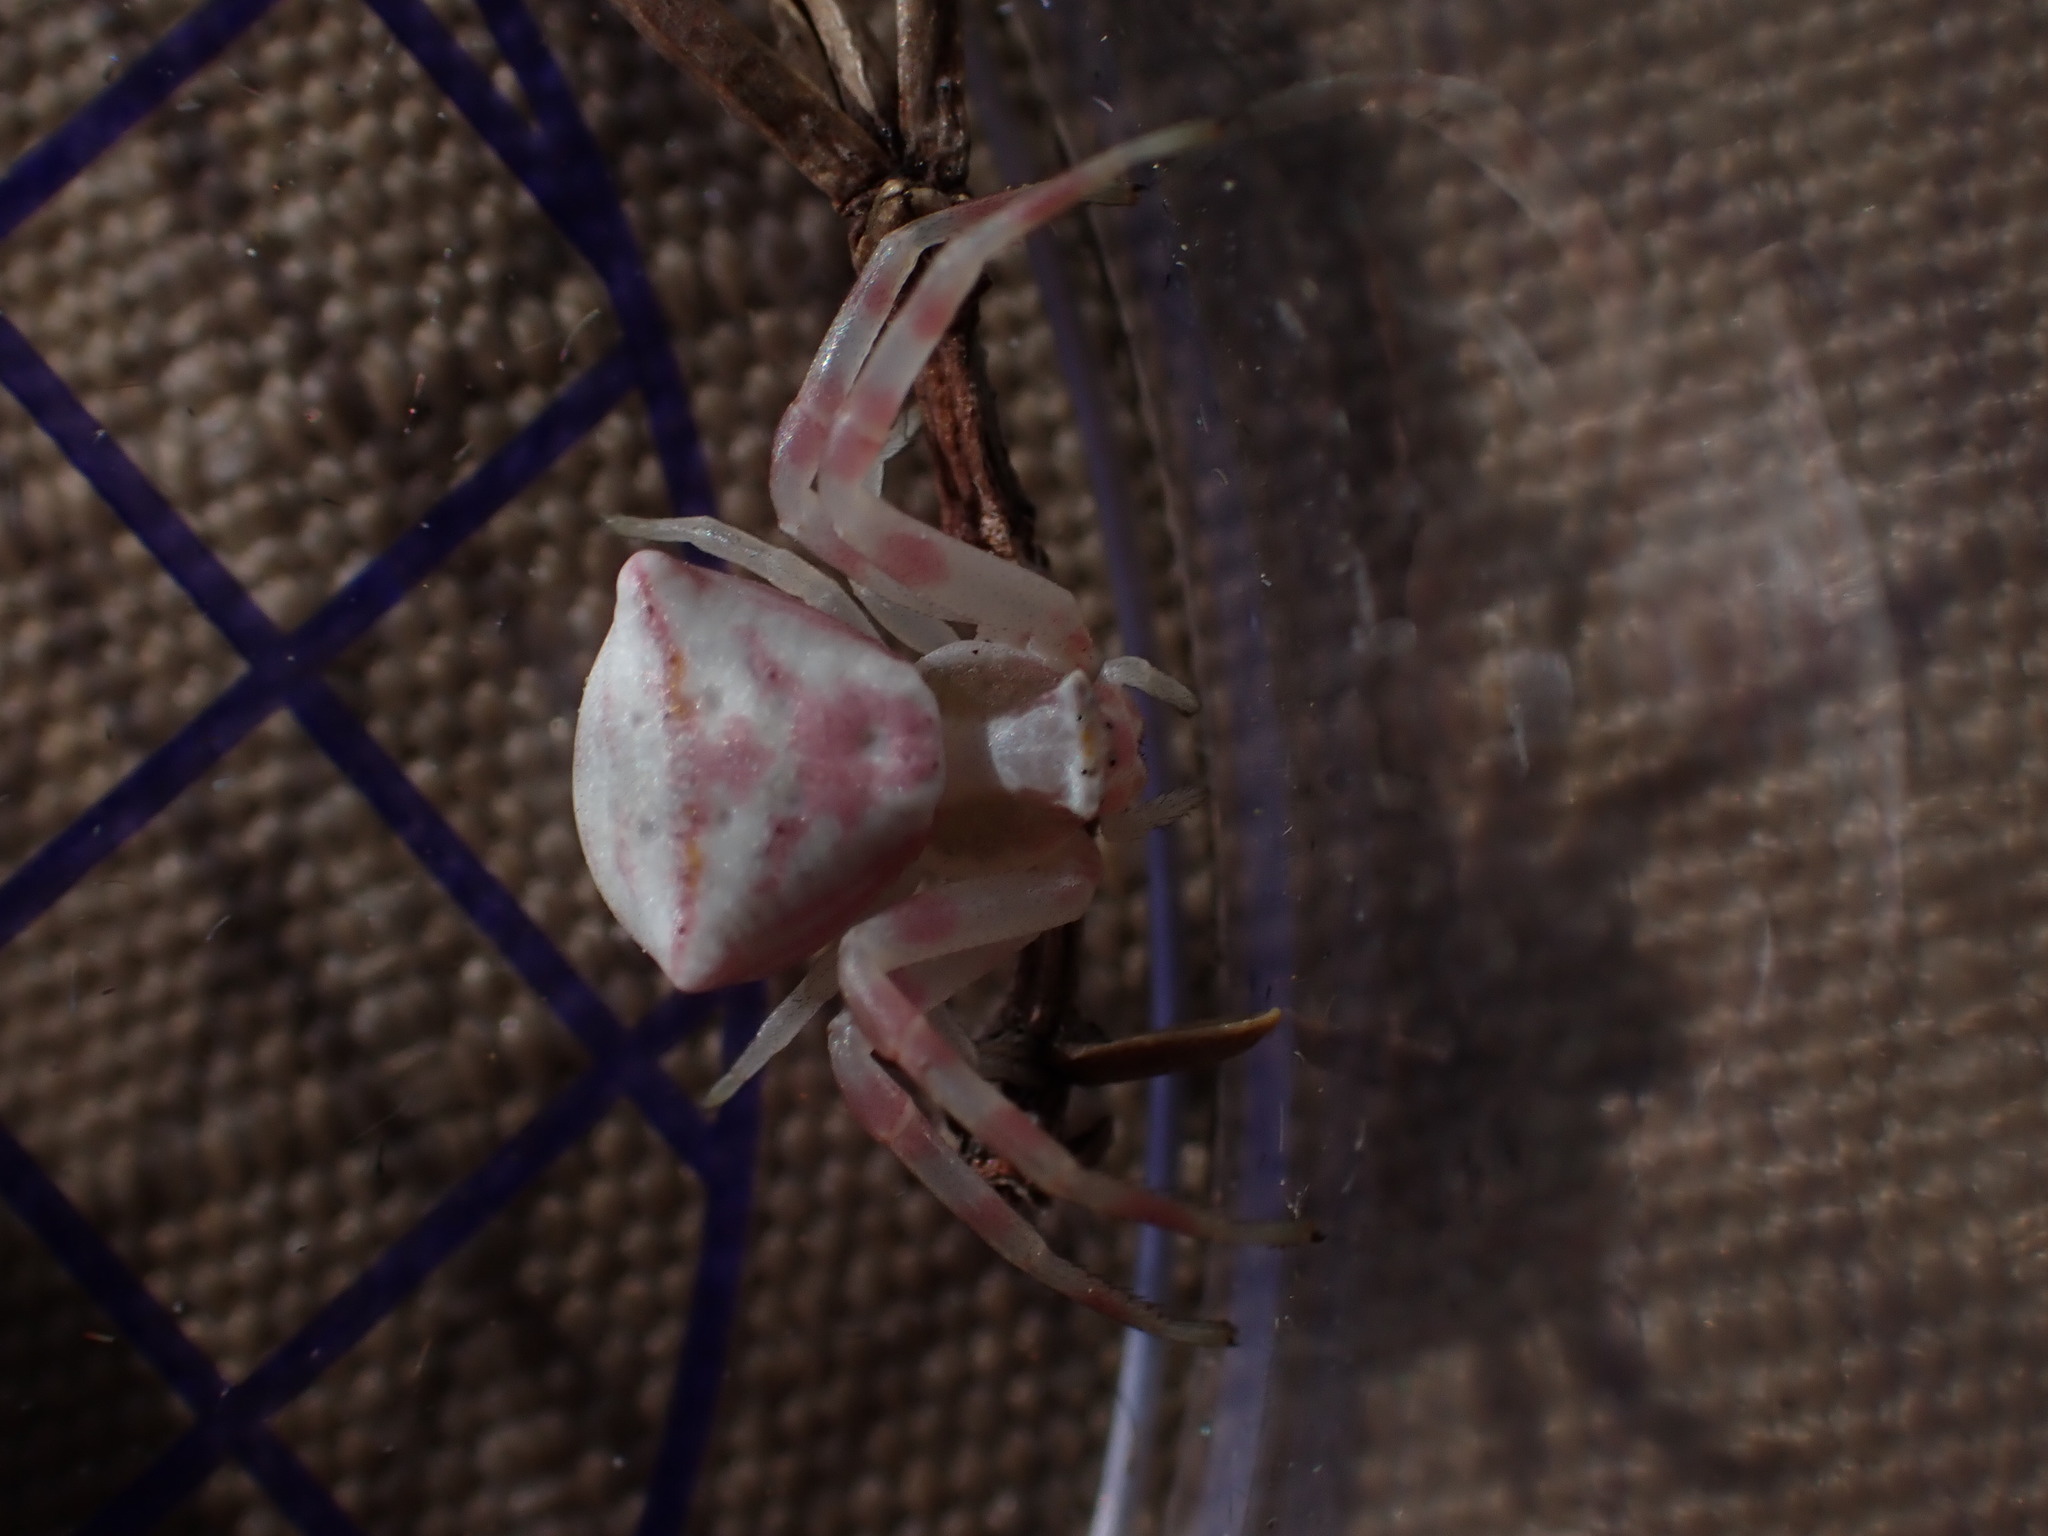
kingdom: Animalia
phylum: Arthropoda
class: Arachnida
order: Araneae
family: Thomisidae
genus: Thomisus
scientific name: Thomisus onustus
